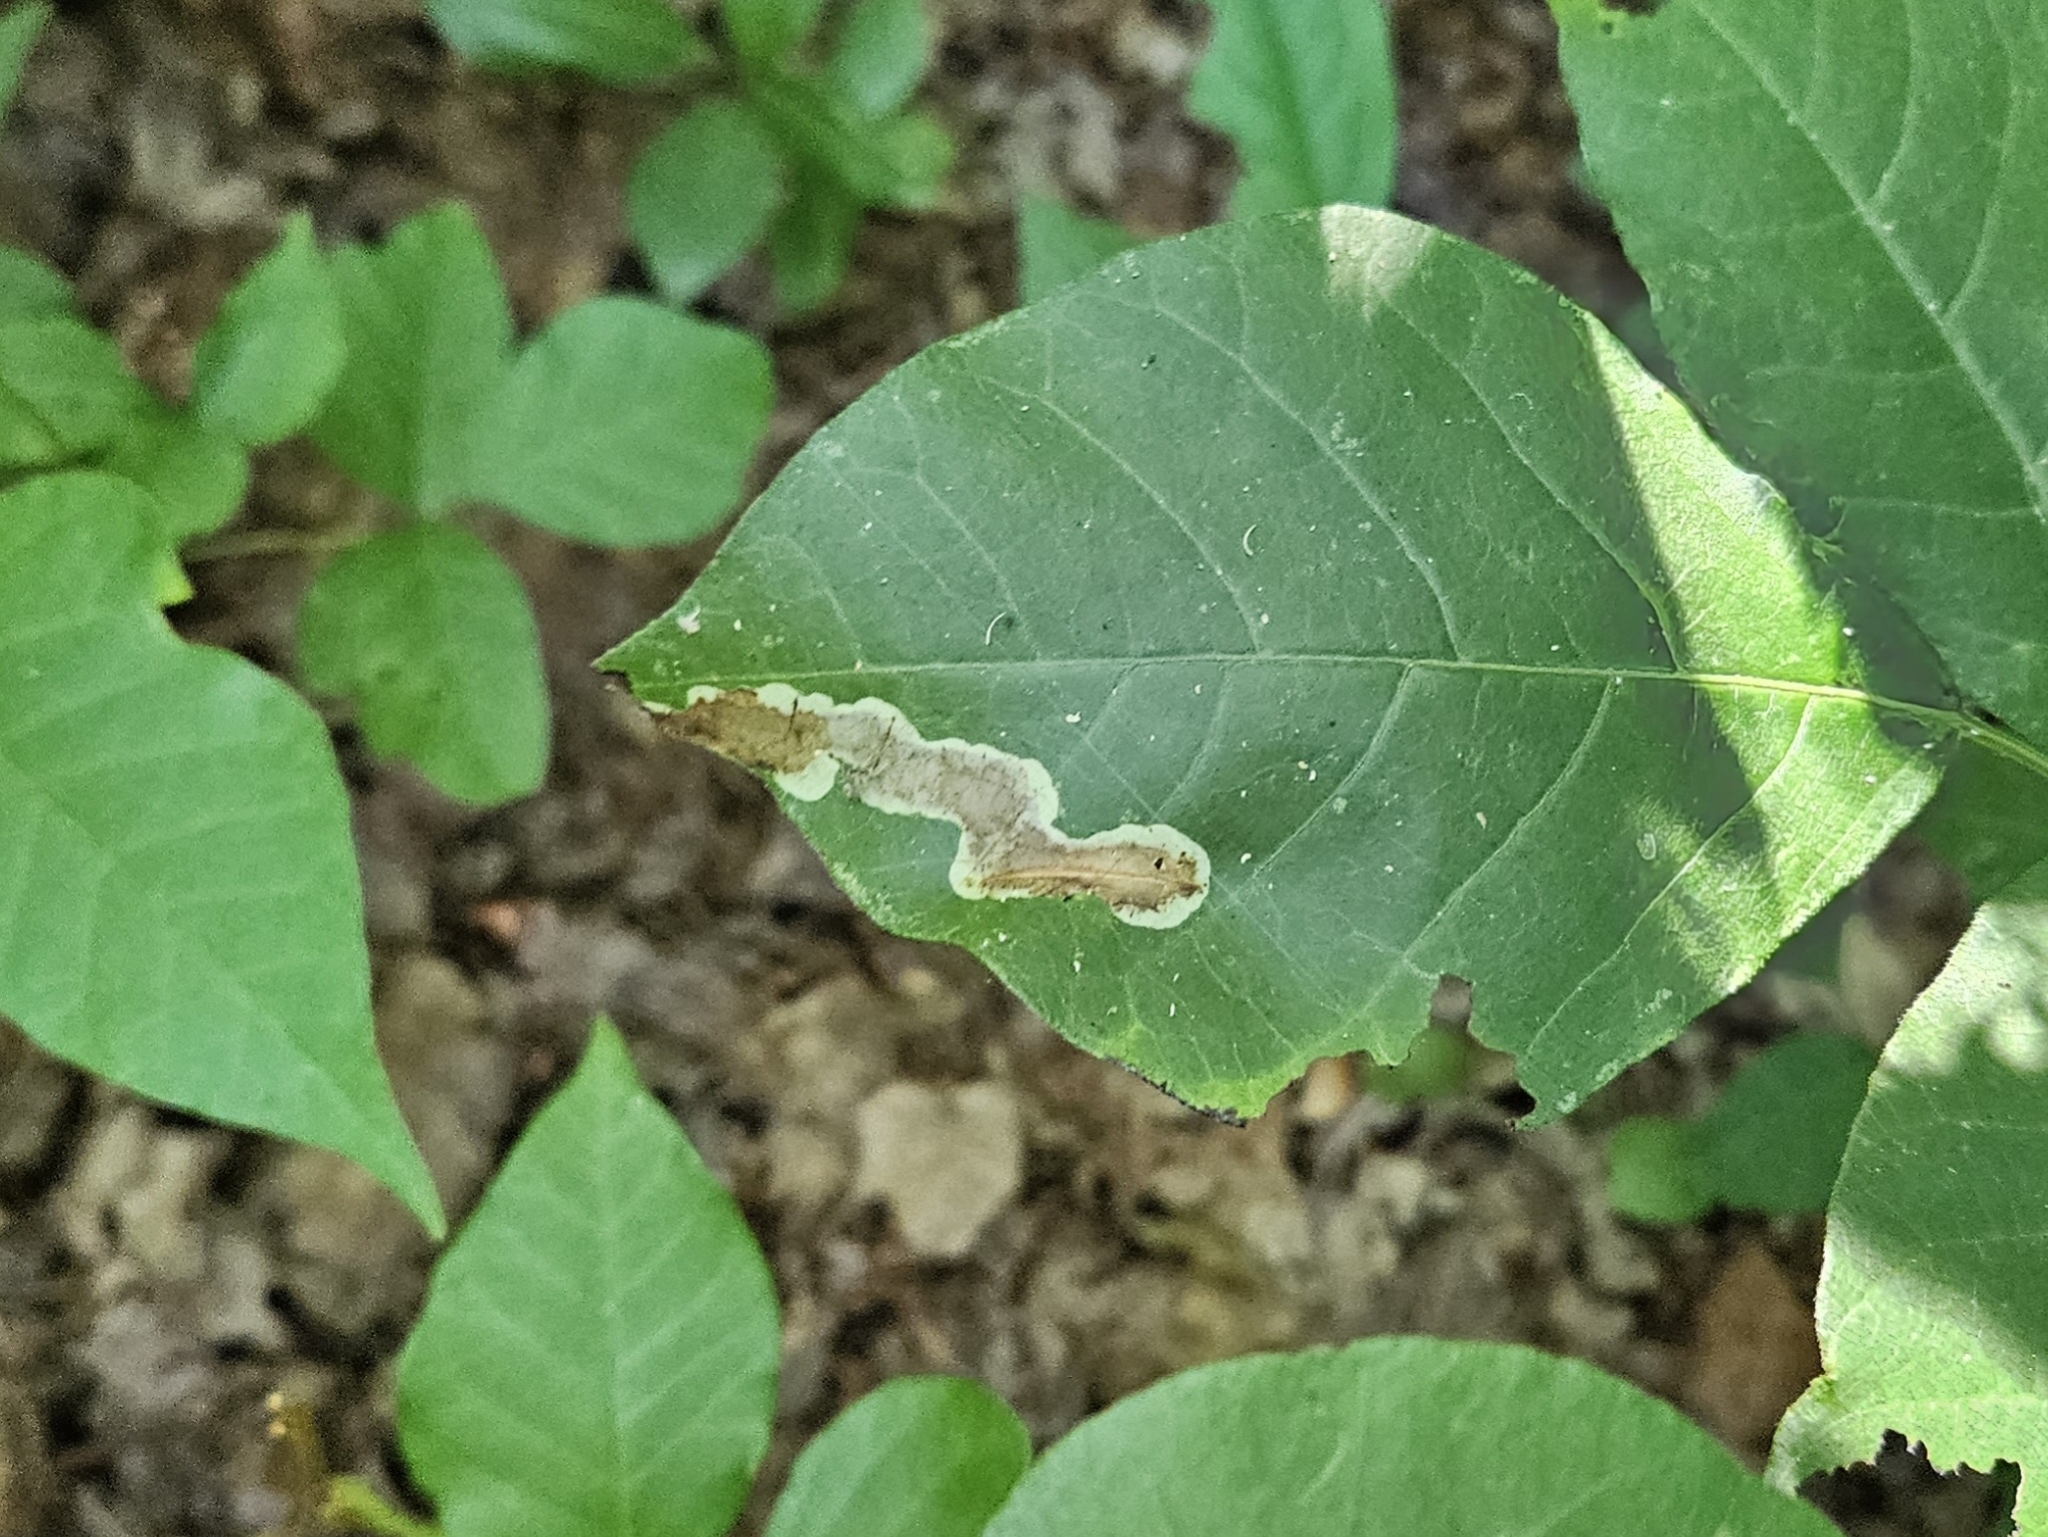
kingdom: Animalia
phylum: Arthropoda
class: Insecta
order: Lepidoptera
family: Gracillariidae
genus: Cameraria
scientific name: Cameraria guttifinitella
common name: Poison ivy leaf-miner moth
